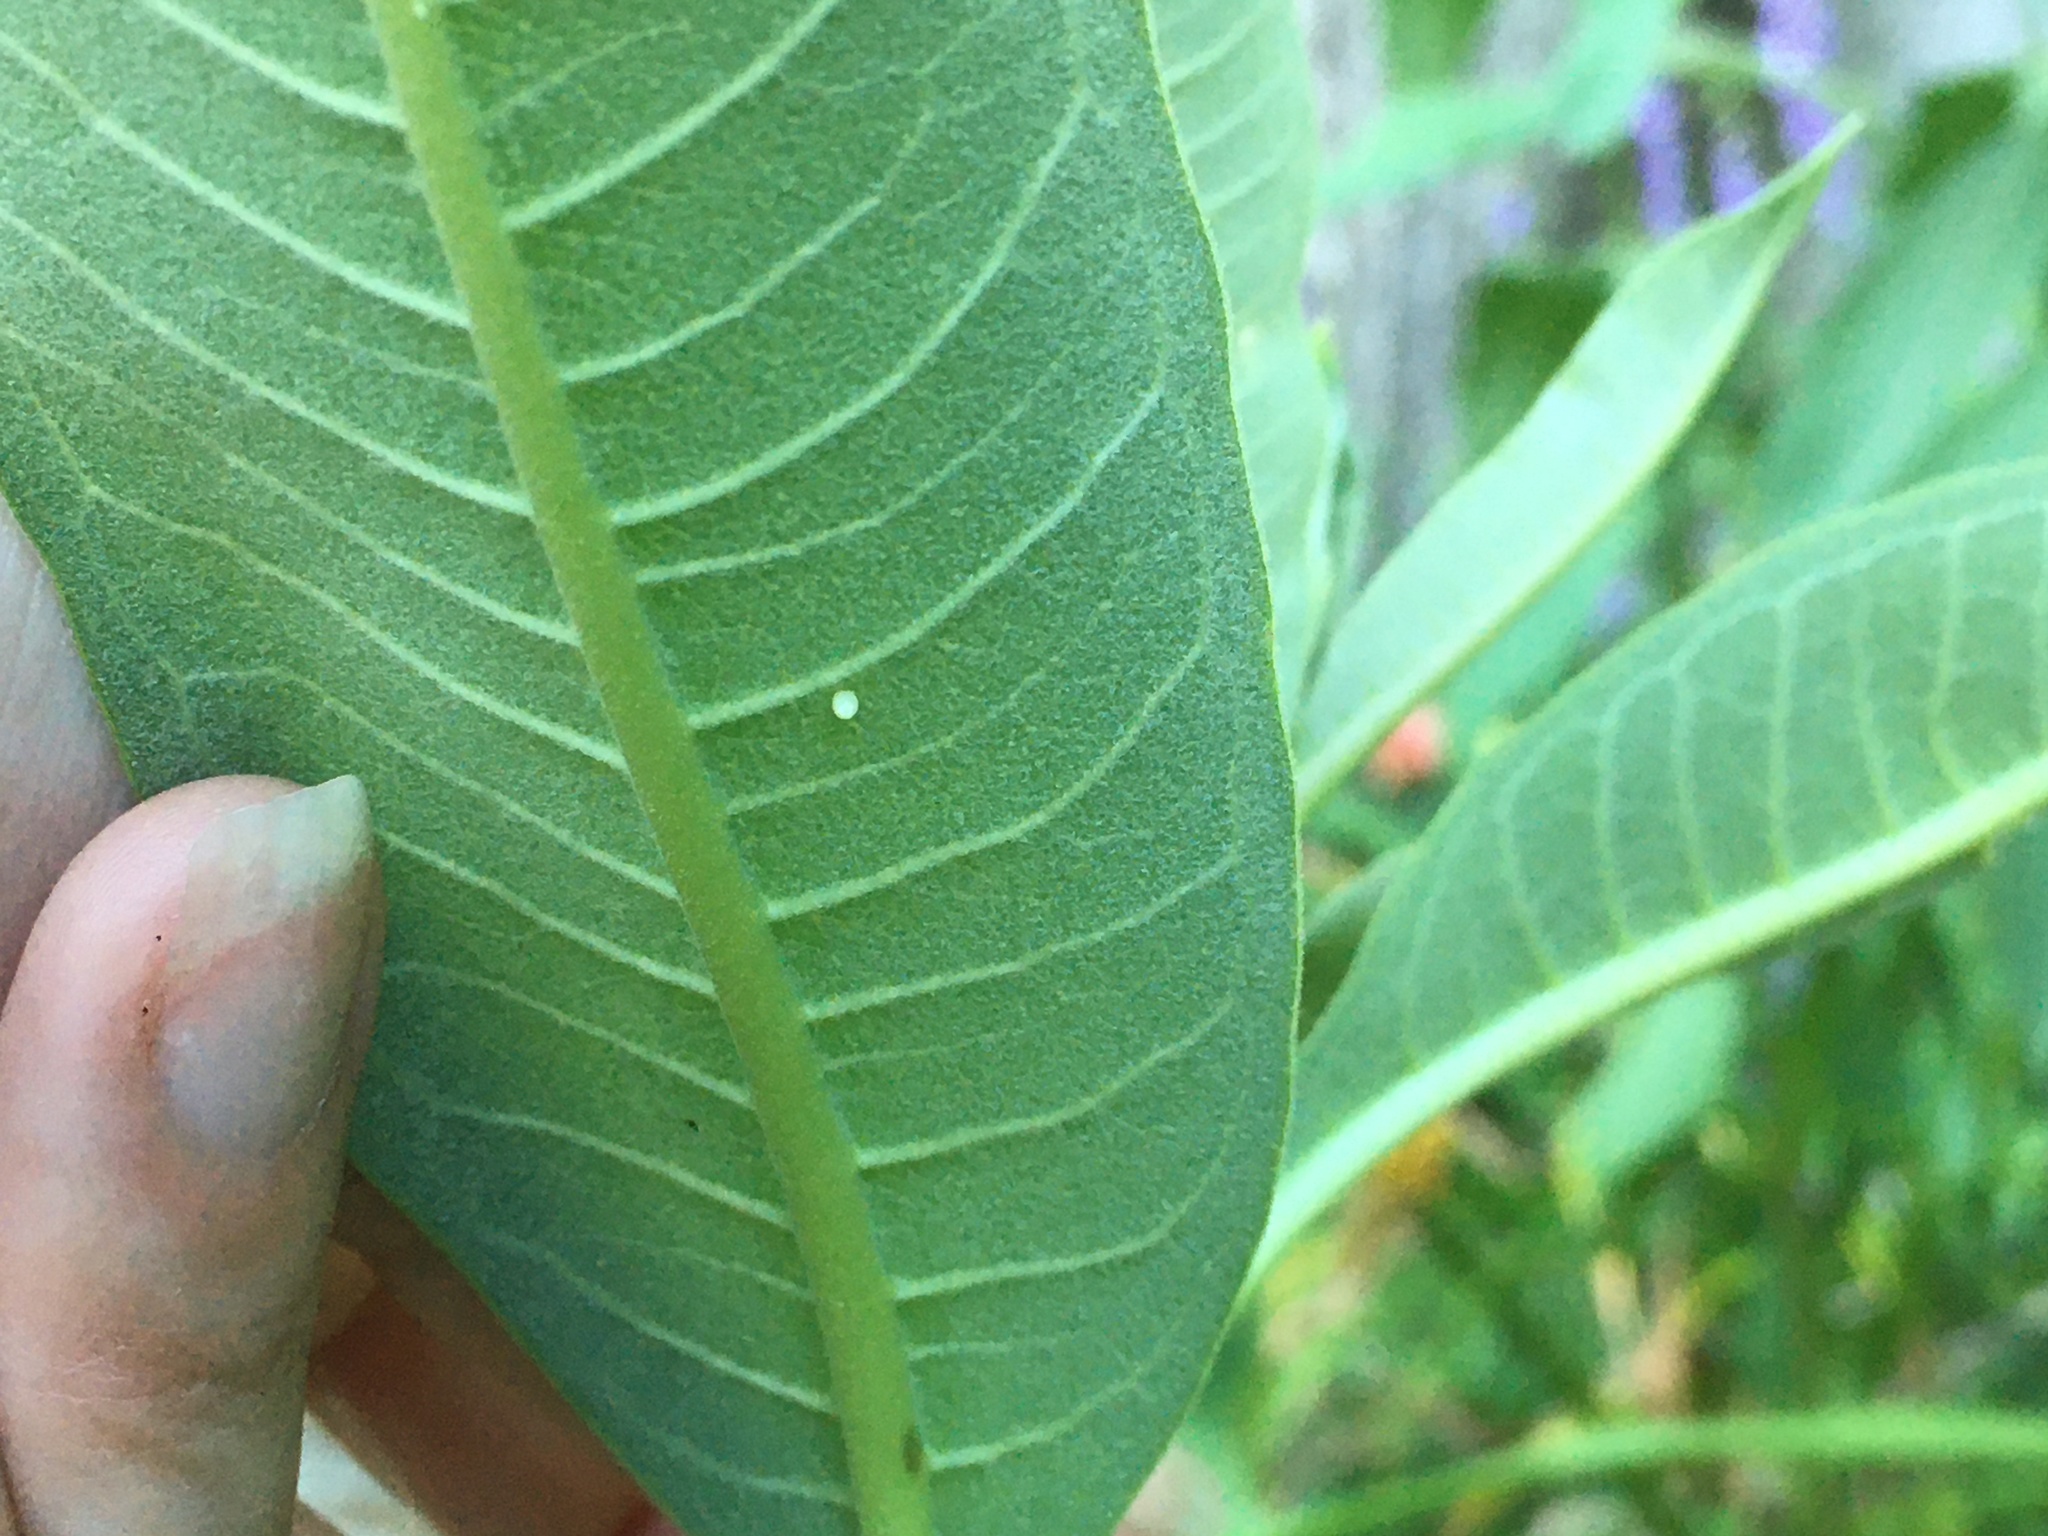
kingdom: Animalia
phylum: Arthropoda
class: Insecta
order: Lepidoptera
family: Nymphalidae
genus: Danaus
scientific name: Danaus plexippus
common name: Monarch
